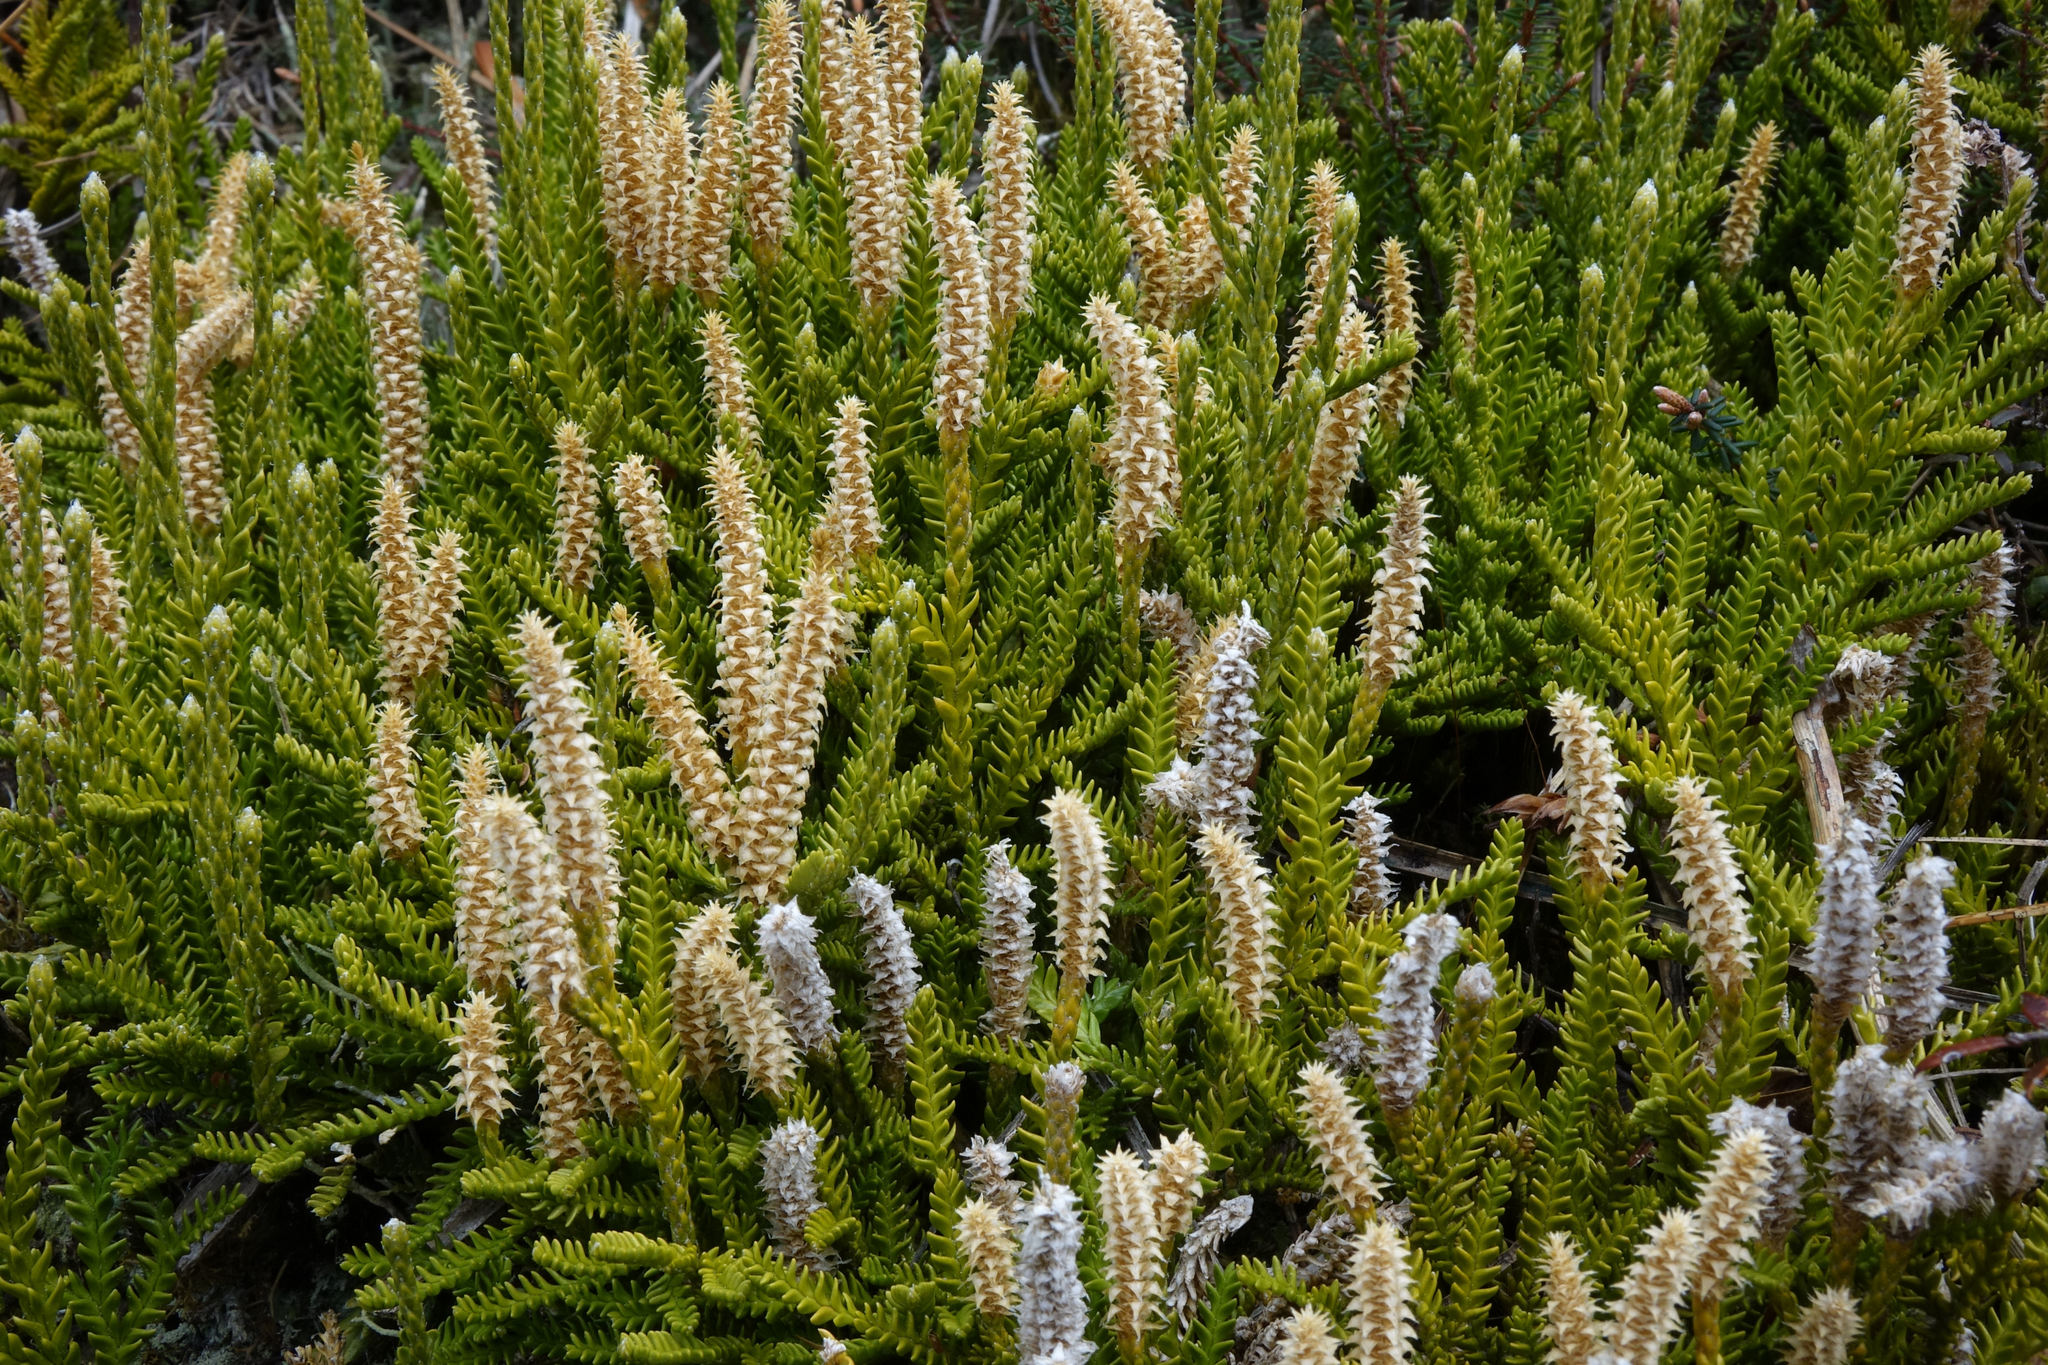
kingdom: Plantae
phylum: Tracheophyta
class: Lycopodiopsida
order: Lycopodiales
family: Lycopodiaceae
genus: Diphasium
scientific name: Diphasium scariosum
